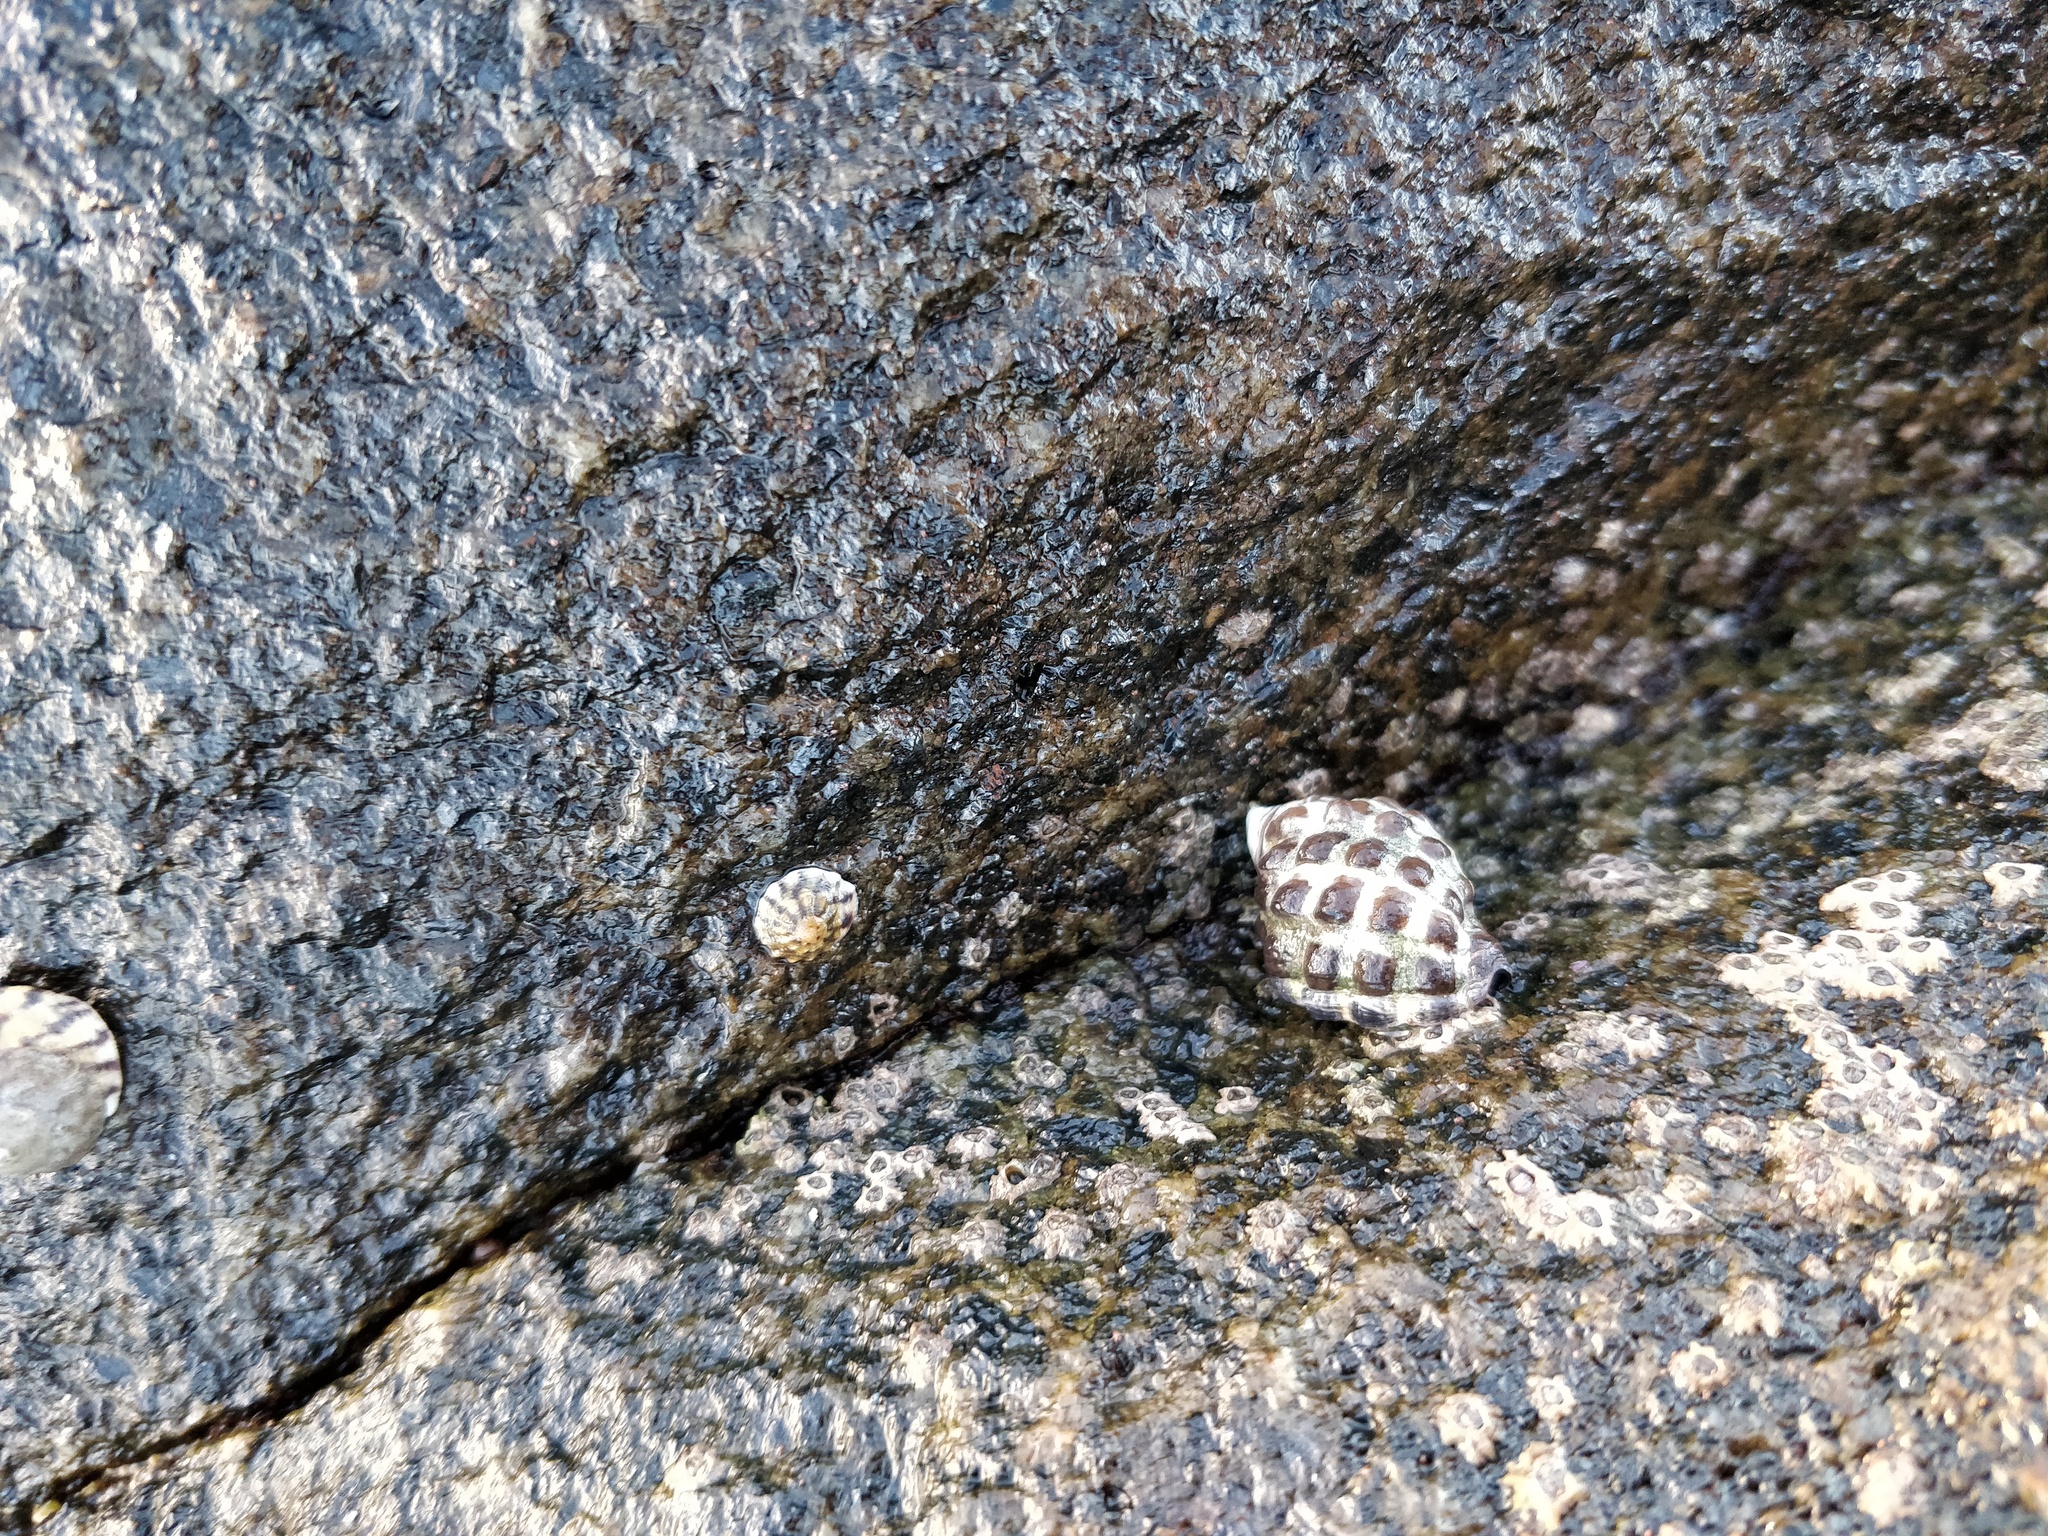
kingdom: Animalia
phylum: Mollusca
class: Gastropoda
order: Neogastropoda
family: Muricidae
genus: Tenguella
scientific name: Tenguella marginalba
